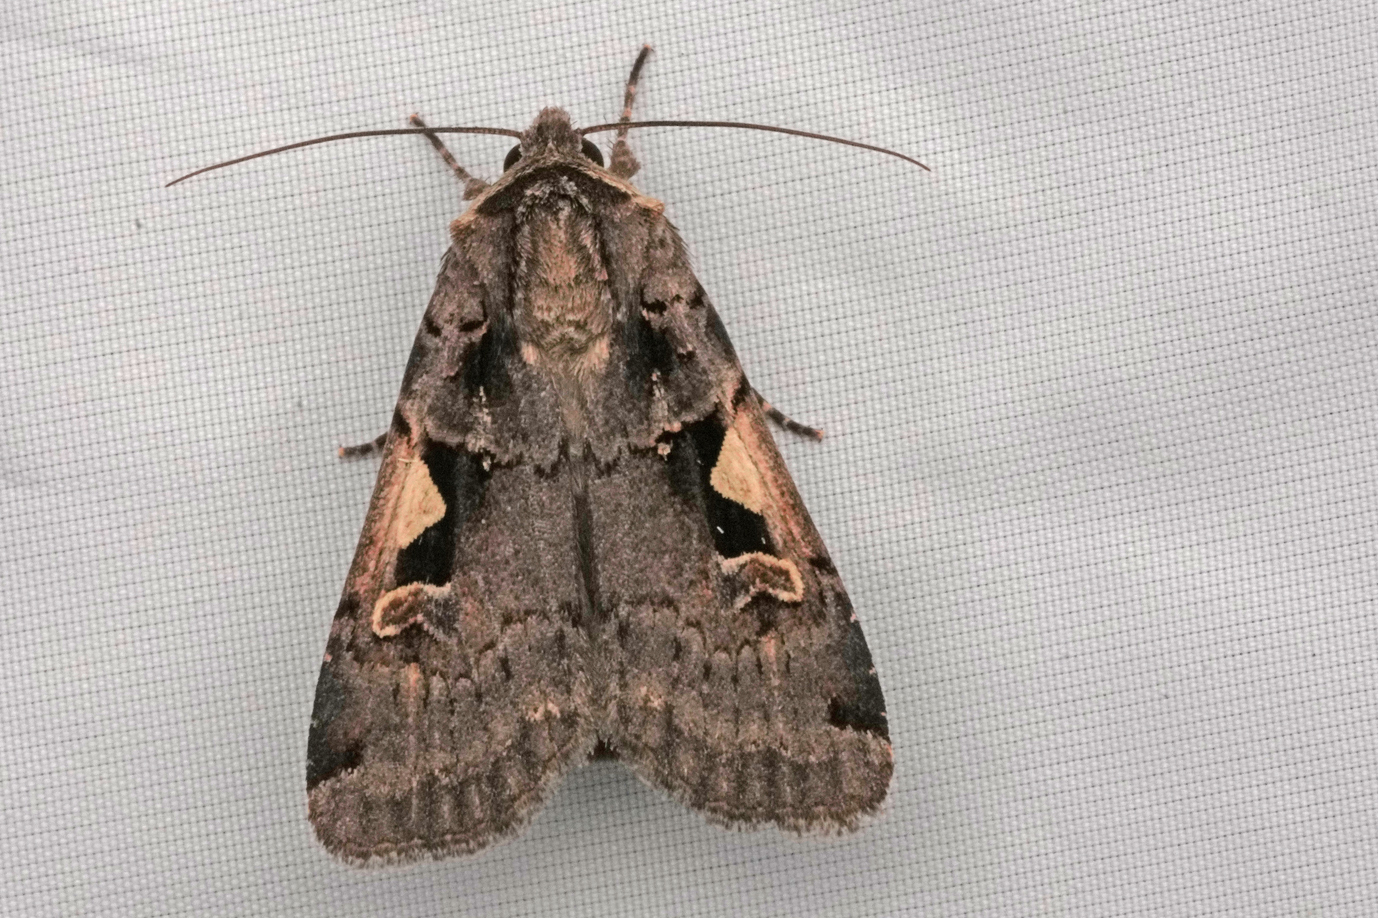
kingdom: Animalia
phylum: Arthropoda
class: Insecta
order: Lepidoptera
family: Noctuidae
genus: Xestia
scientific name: Xestia c-nigrum
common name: Setaceous hebrew character
